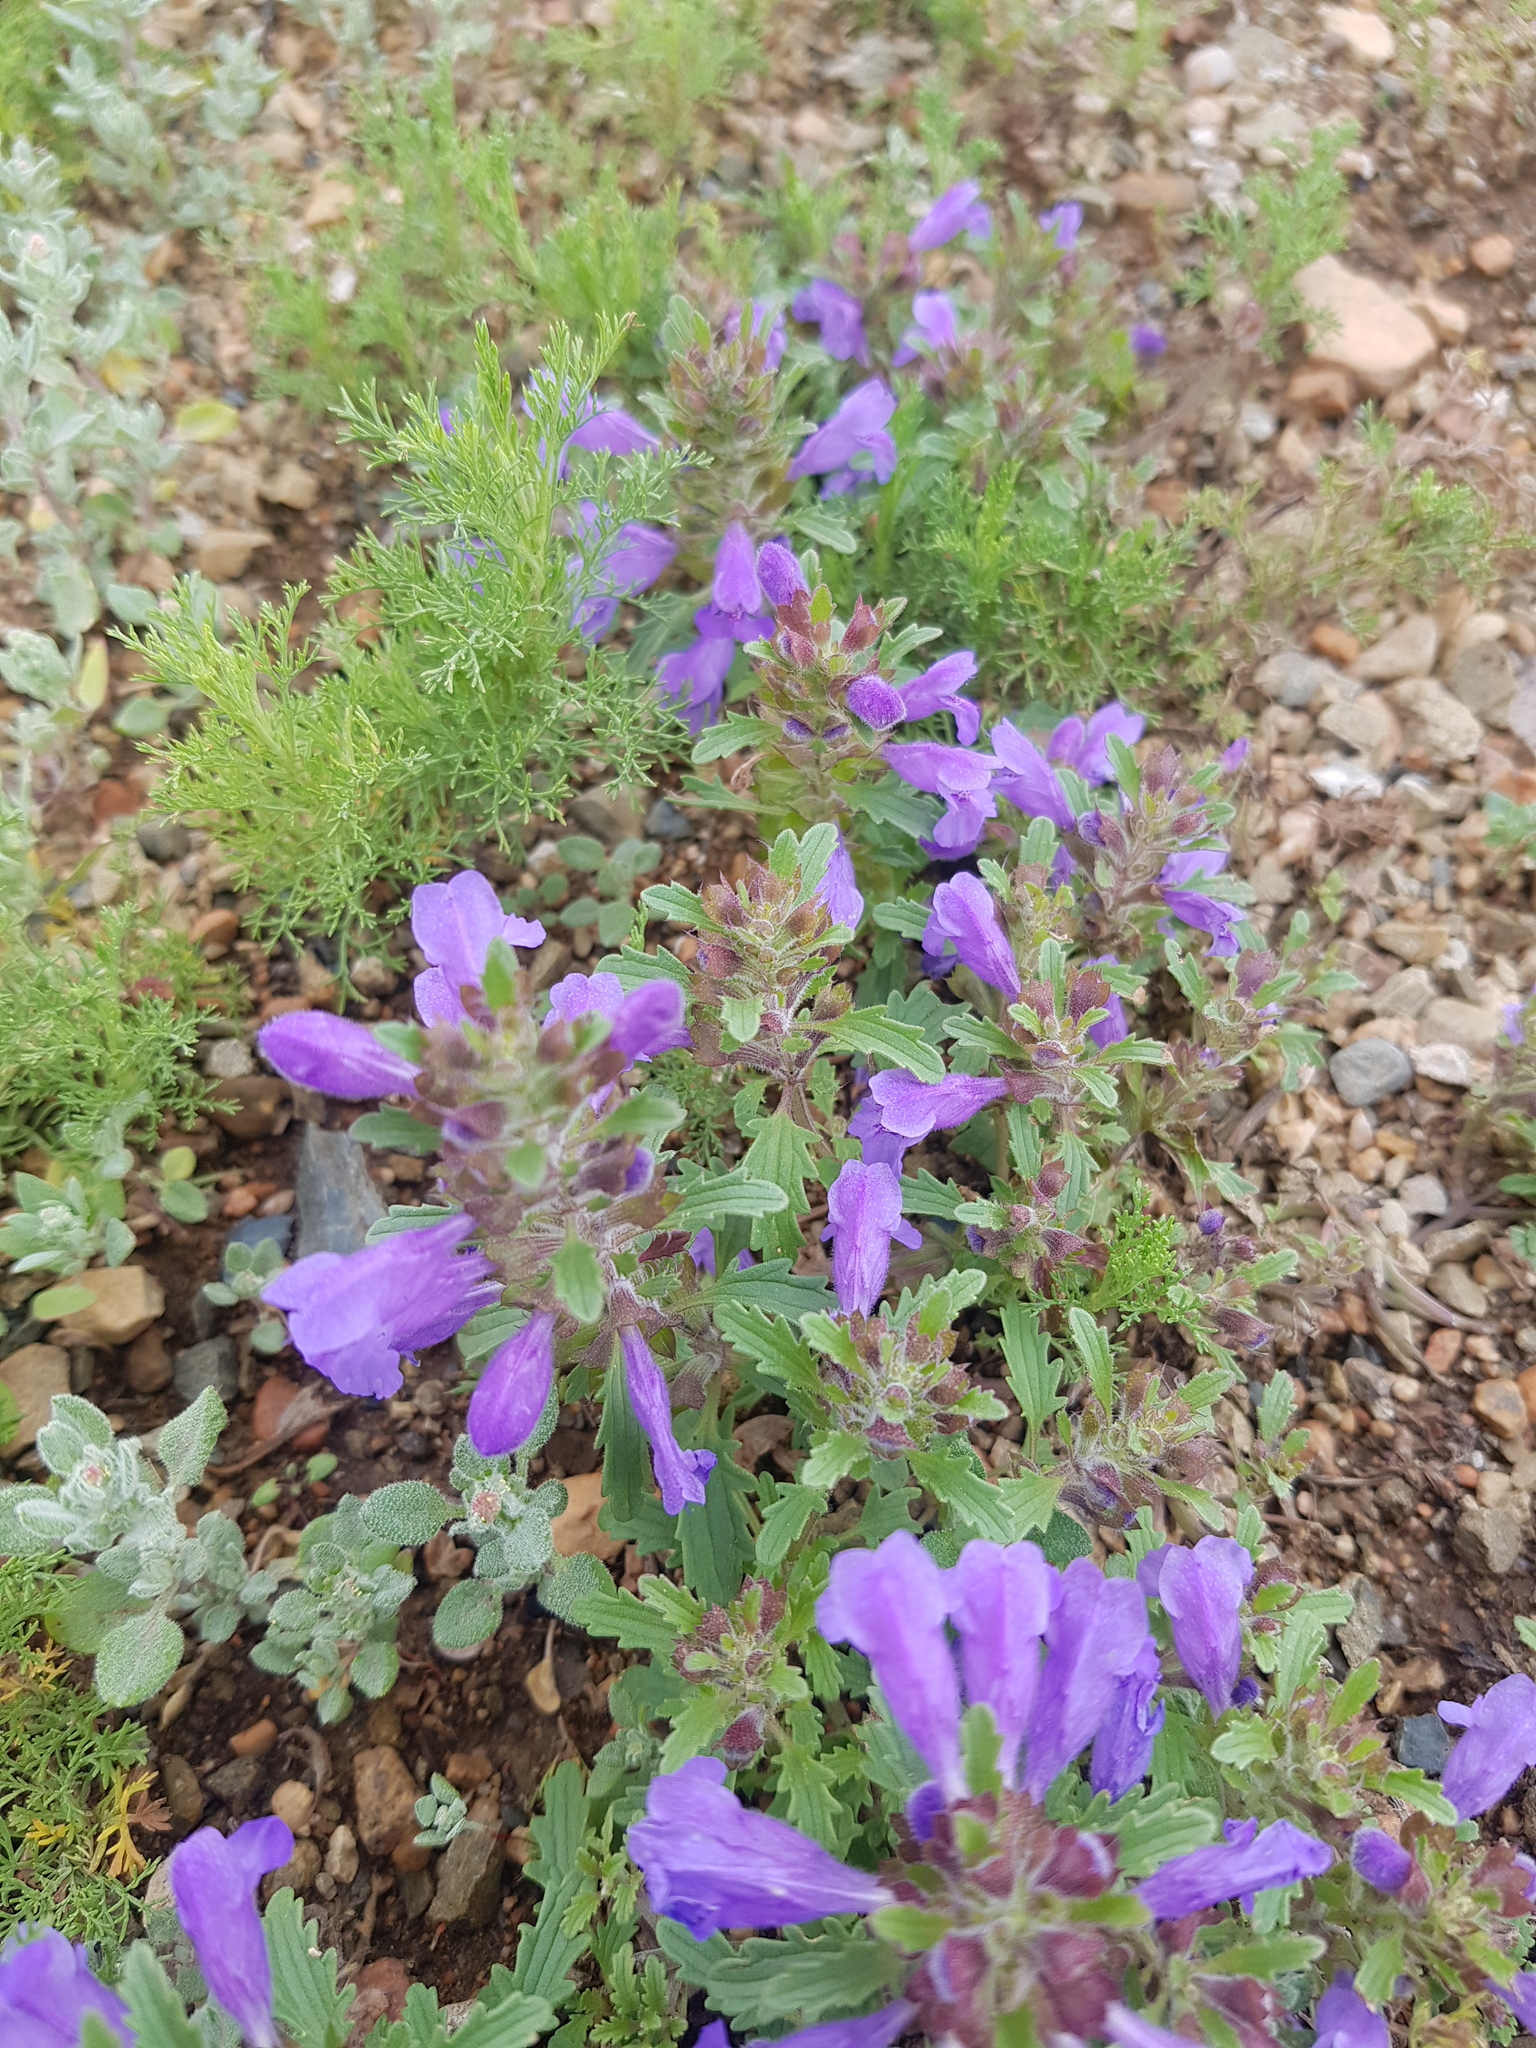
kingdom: Plantae
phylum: Tracheophyta
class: Magnoliopsida
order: Lamiales
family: Lamiaceae
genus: Dracocephalum
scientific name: Dracocephalum foetidum
